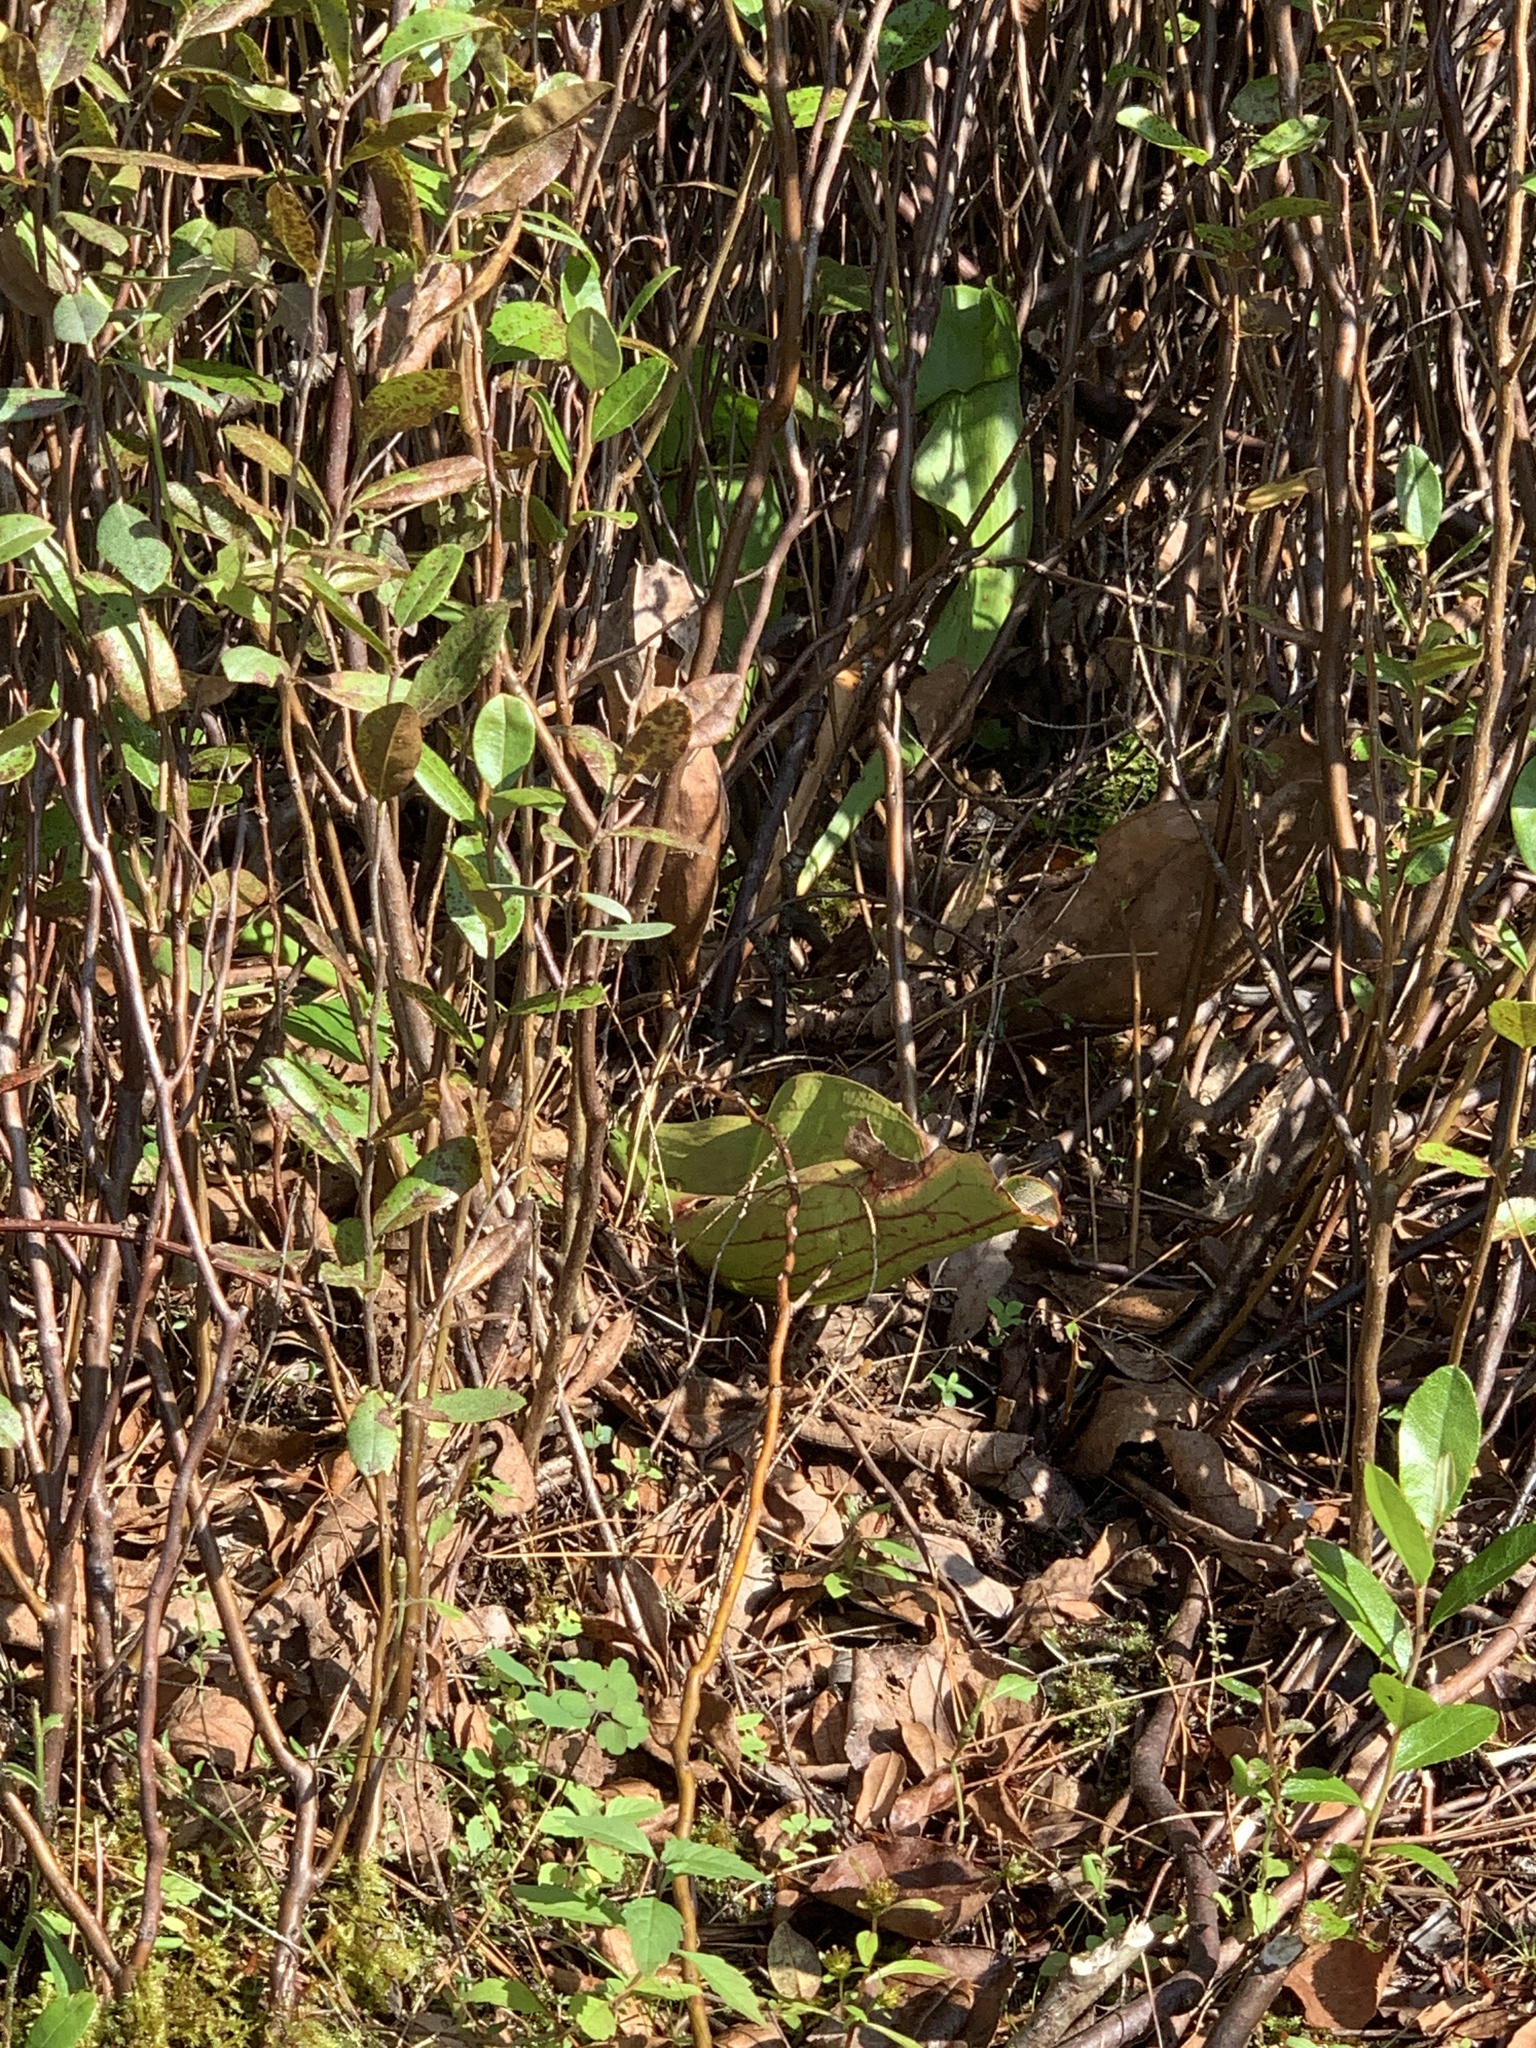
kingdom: Plantae
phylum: Tracheophyta
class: Magnoliopsida
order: Ericales
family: Sarraceniaceae
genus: Sarracenia
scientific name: Sarracenia purpurea
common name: Pitcherplant
